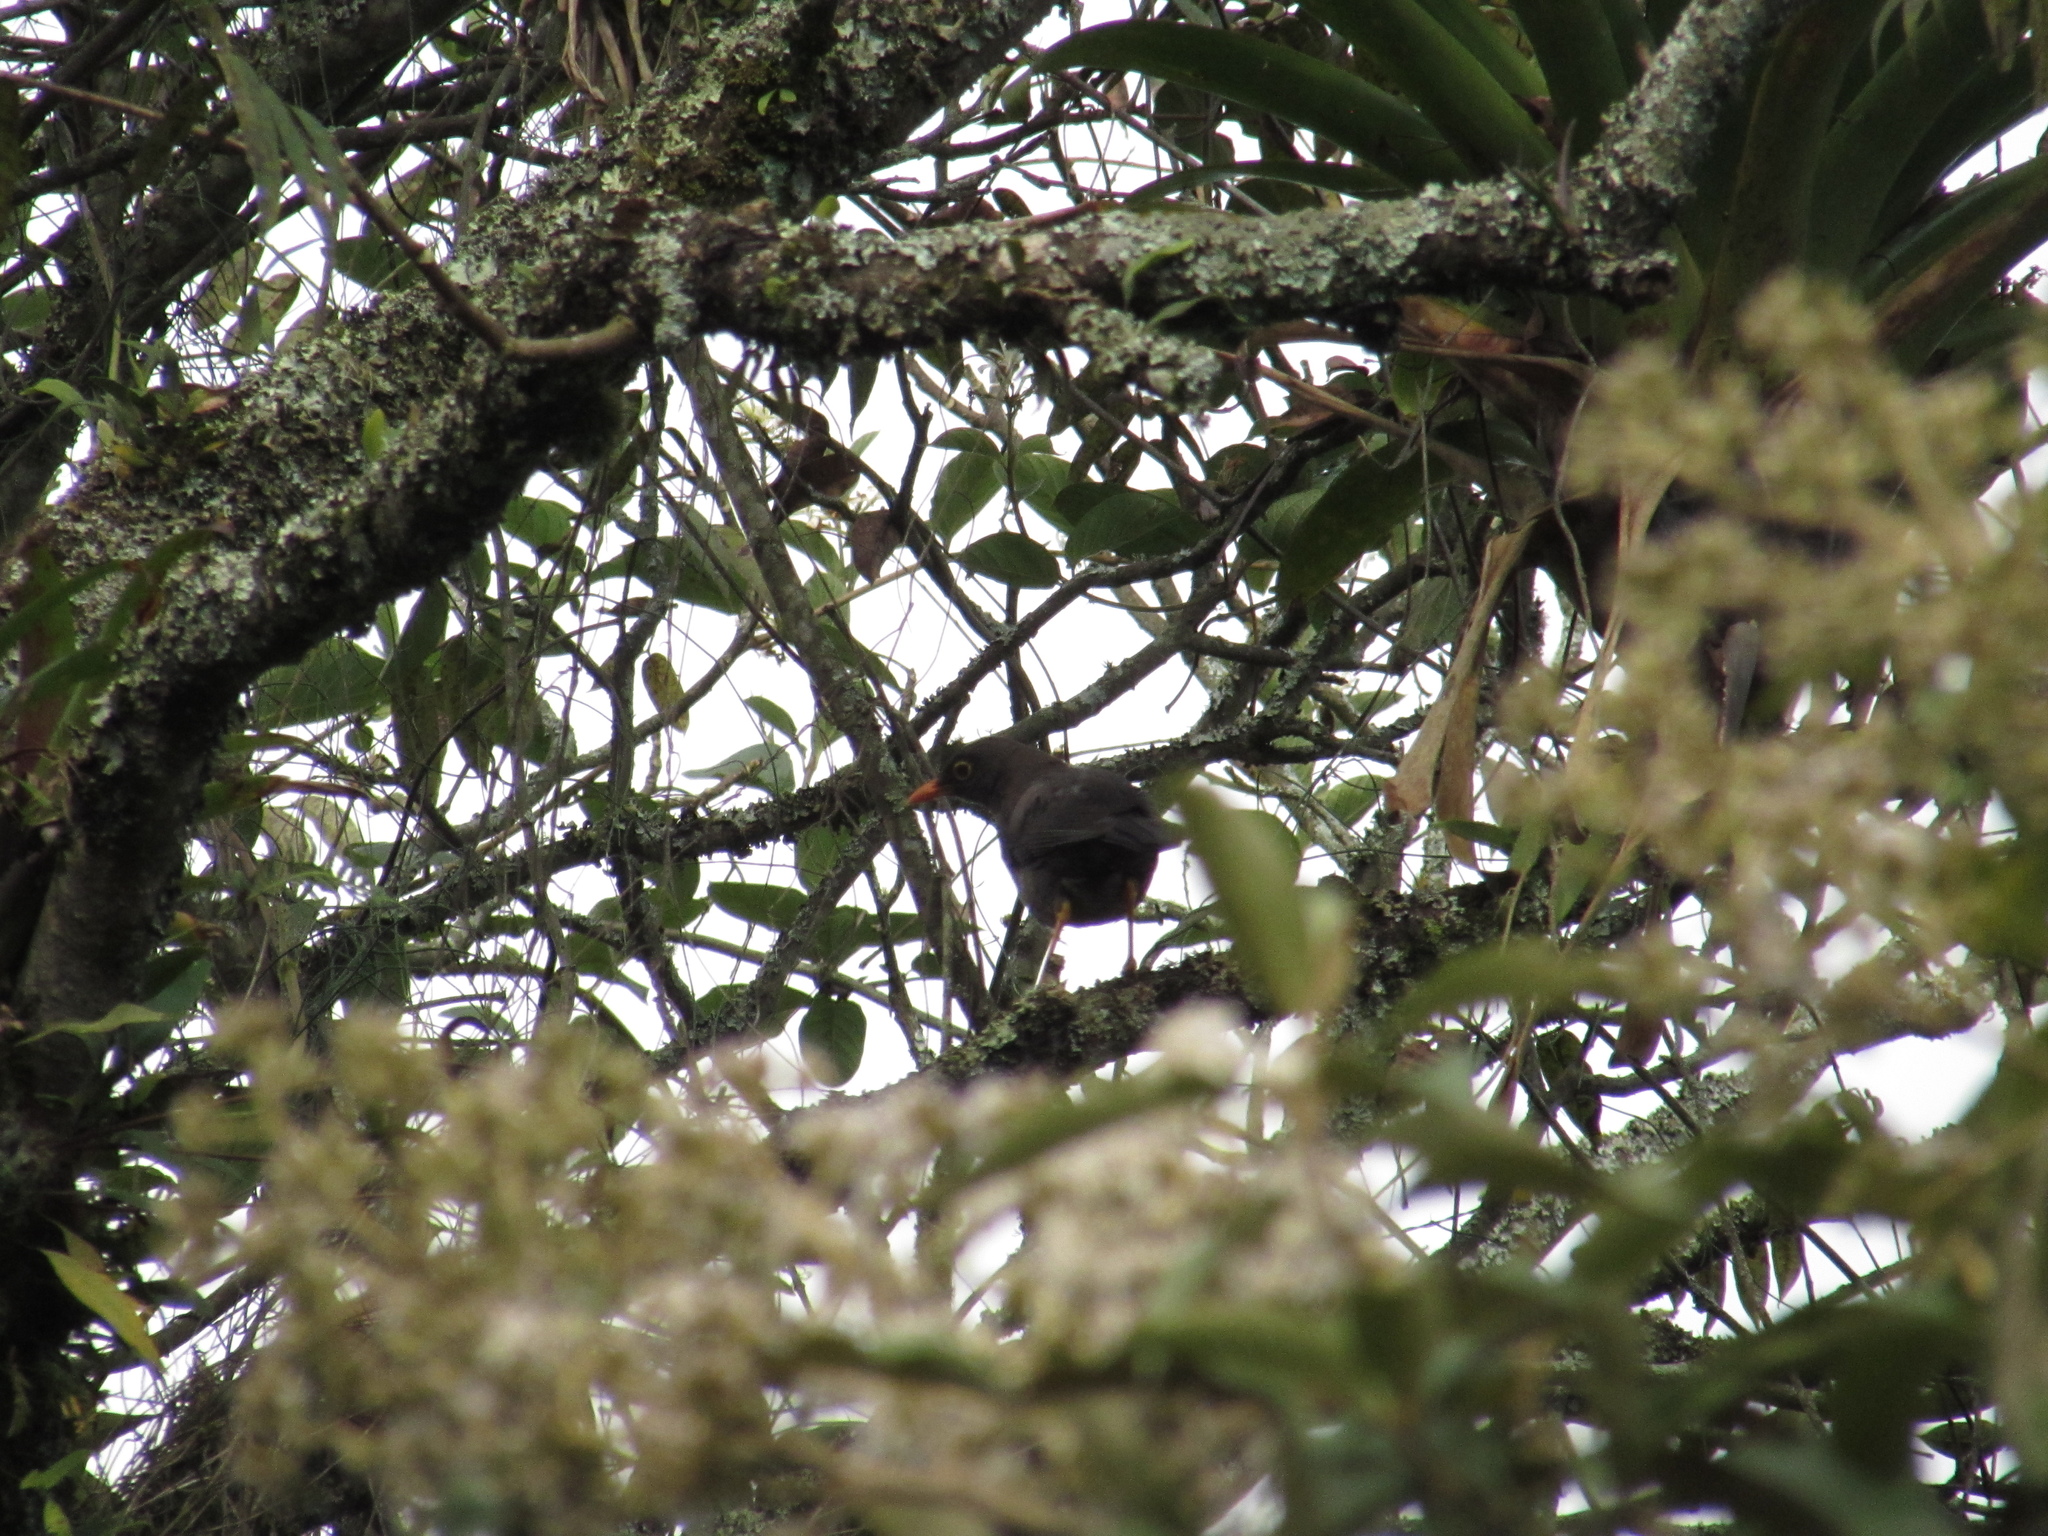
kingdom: Animalia
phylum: Chordata
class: Aves
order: Passeriformes
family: Turdidae
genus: Turdus
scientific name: Turdus fuscater
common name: Great thrush
